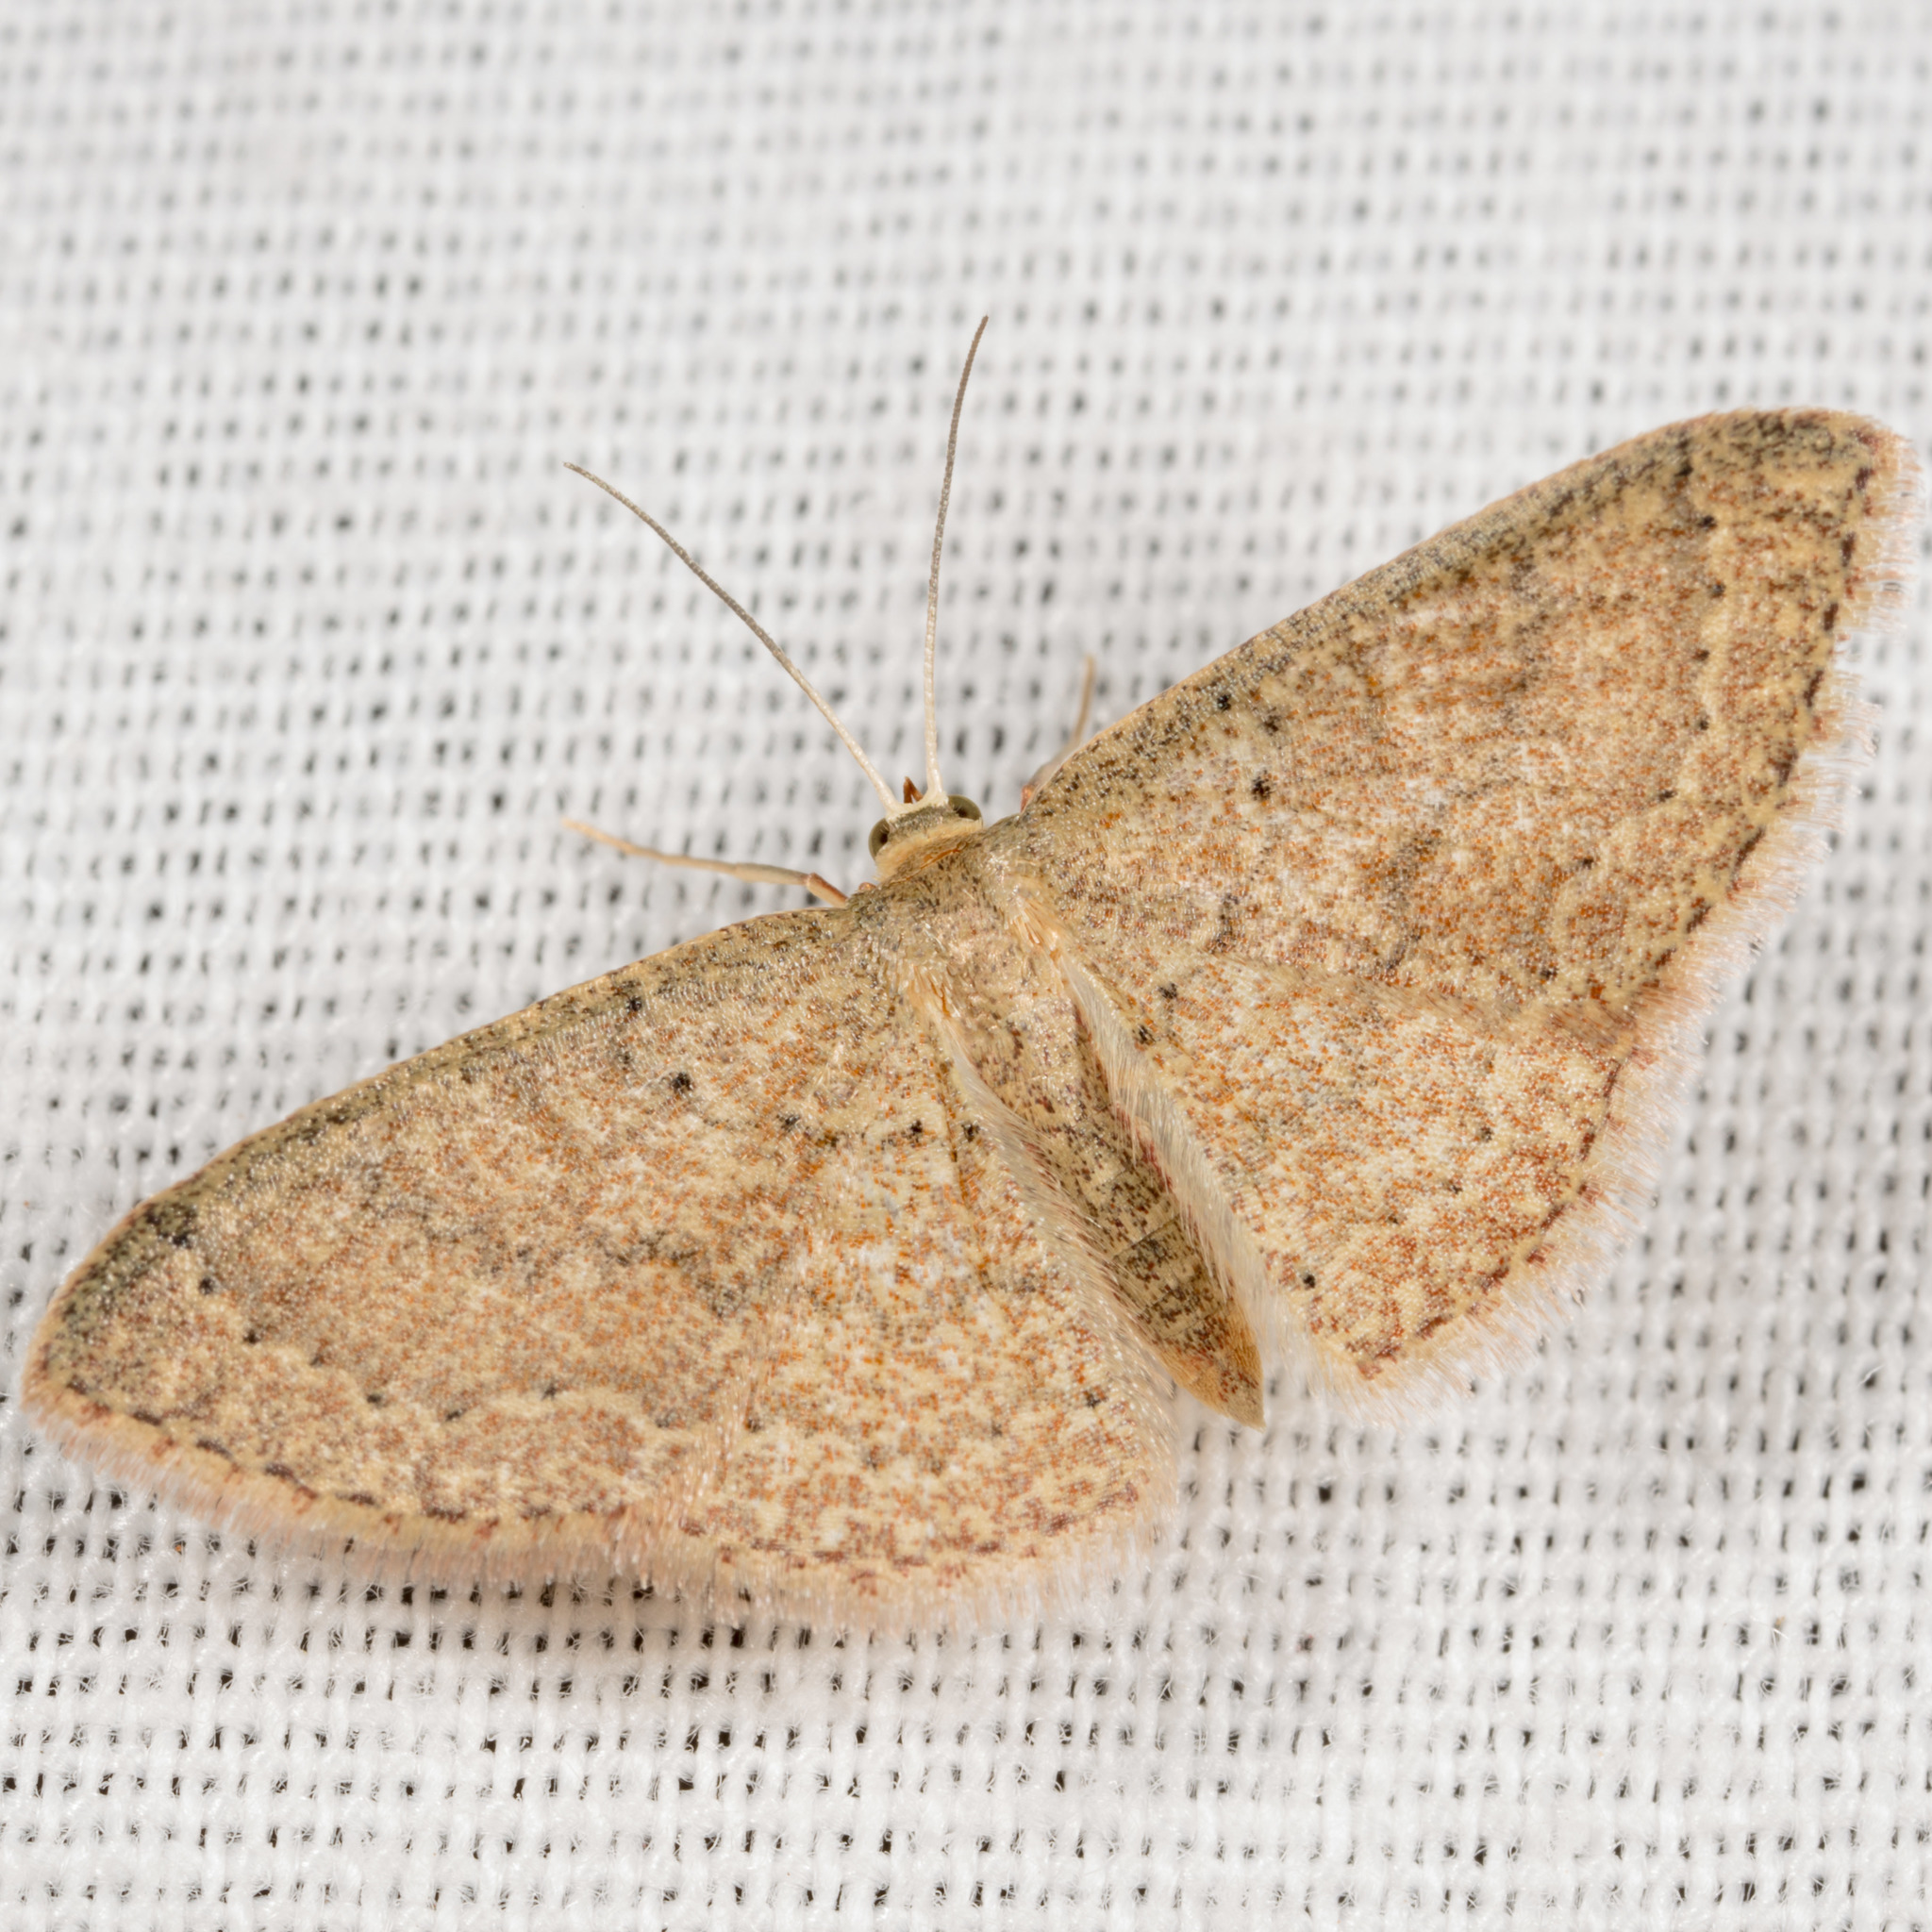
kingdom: Animalia
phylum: Arthropoda
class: Insecta
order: Lepidoptera
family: Geometridae
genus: Pleuroprucha
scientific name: Pleuroprucha insulsaria
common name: Common tan wave
